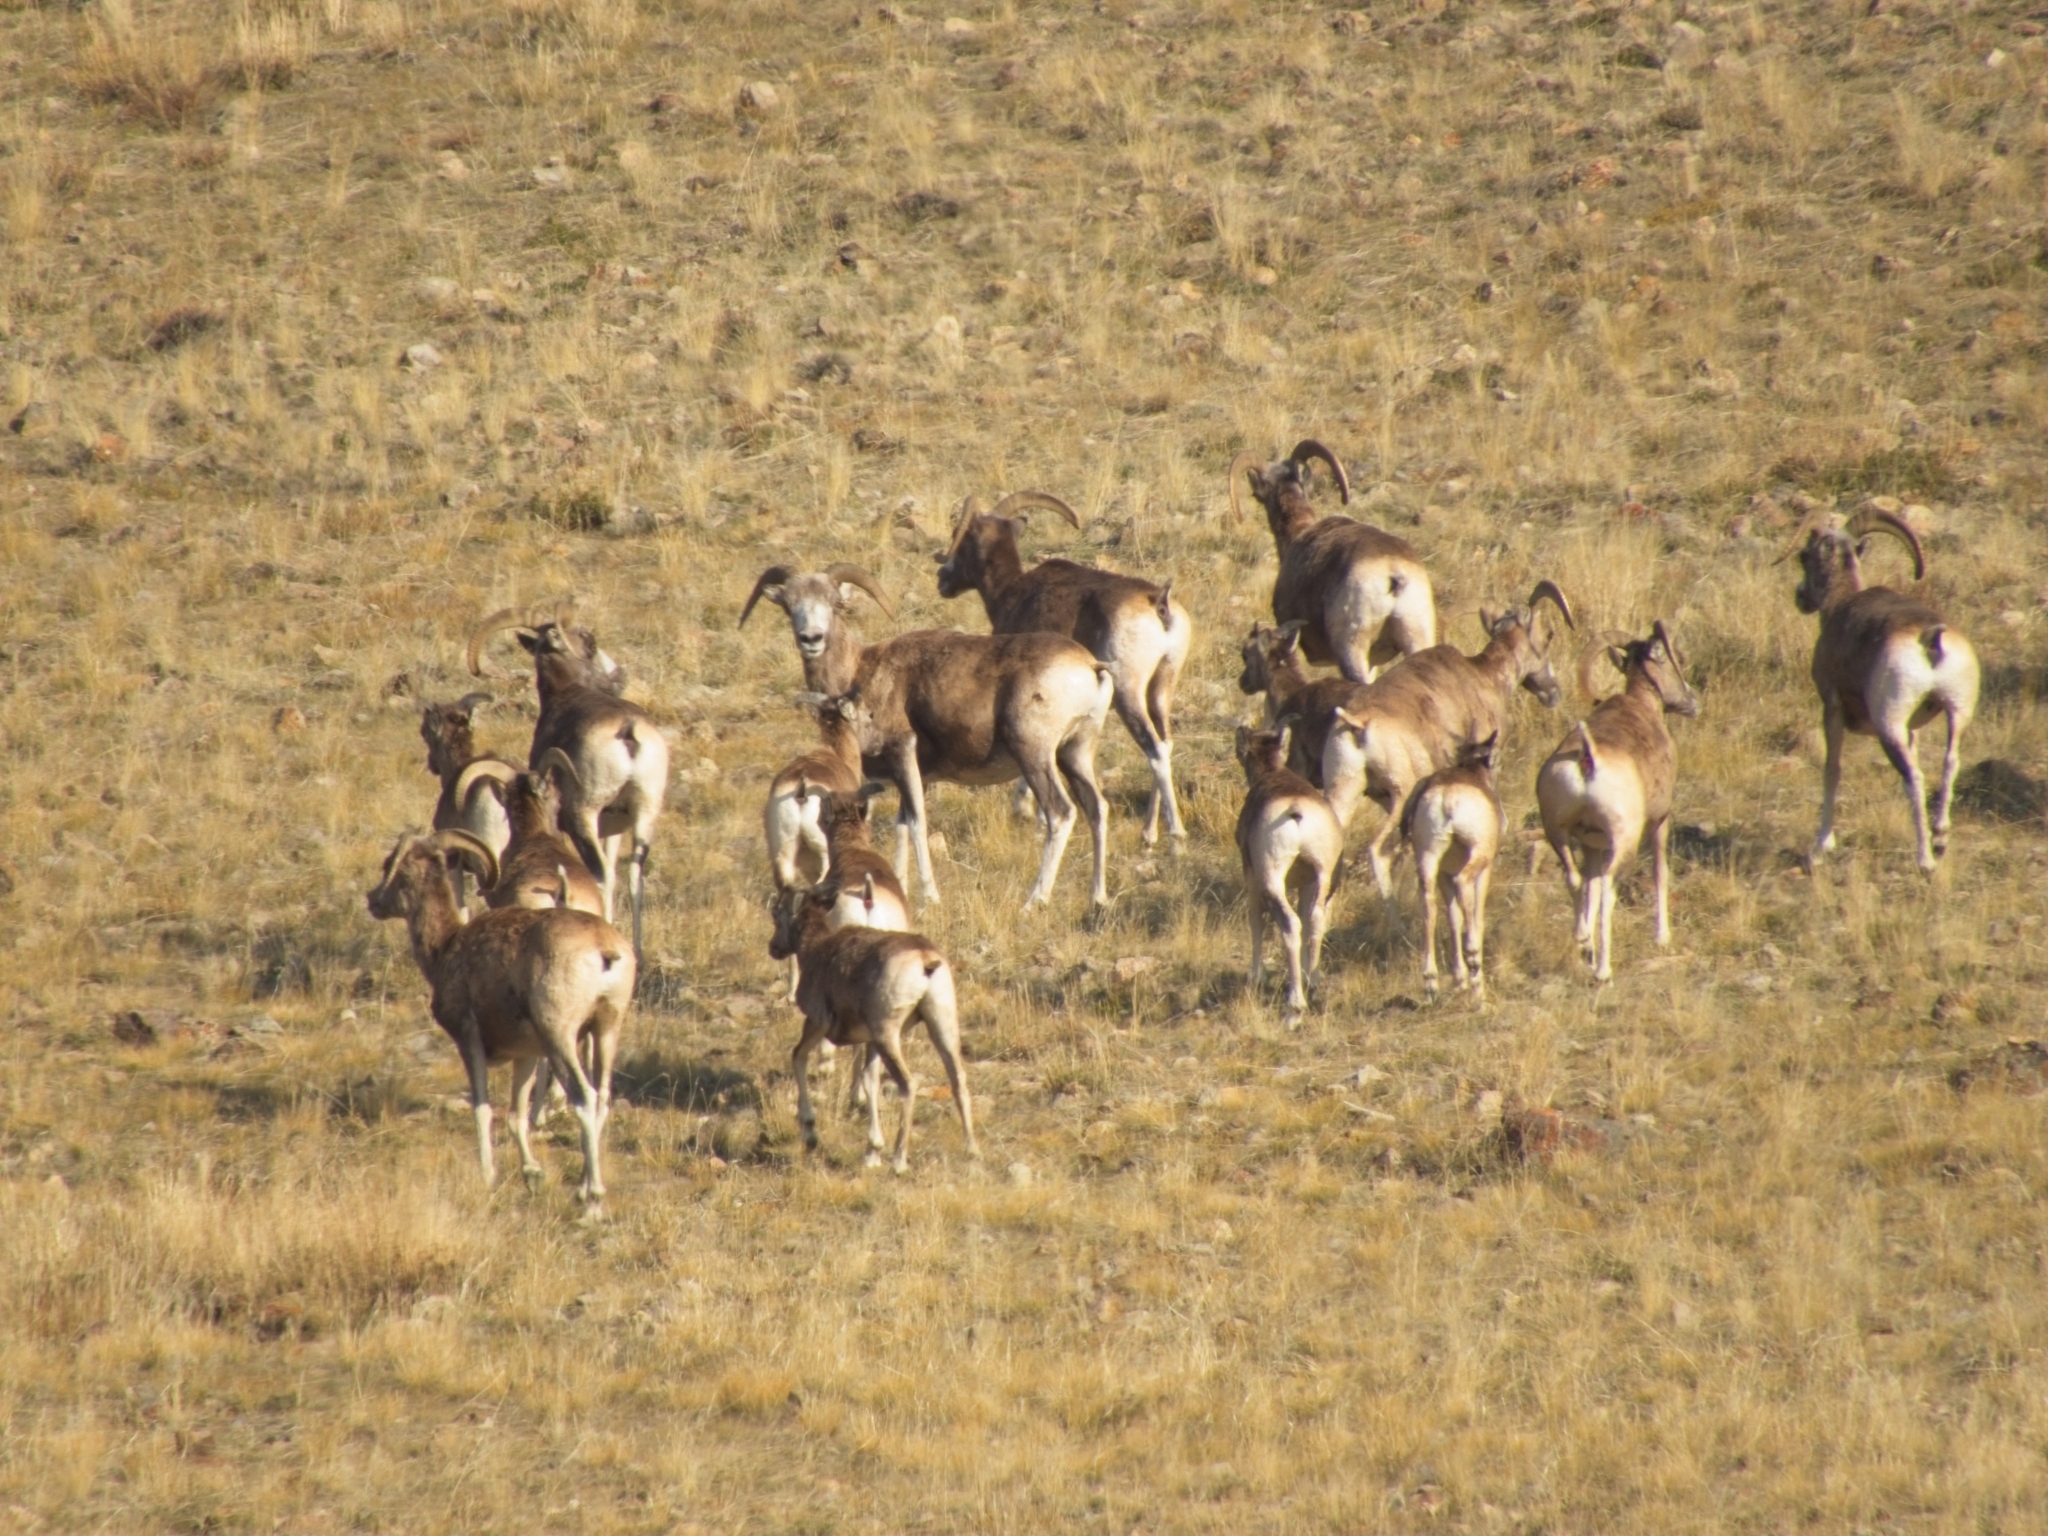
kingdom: Animalia
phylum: Chordata
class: Mammalia
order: Artiodactyla
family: Bovidae
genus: Ovis
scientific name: Ovis ammon
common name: Argali
